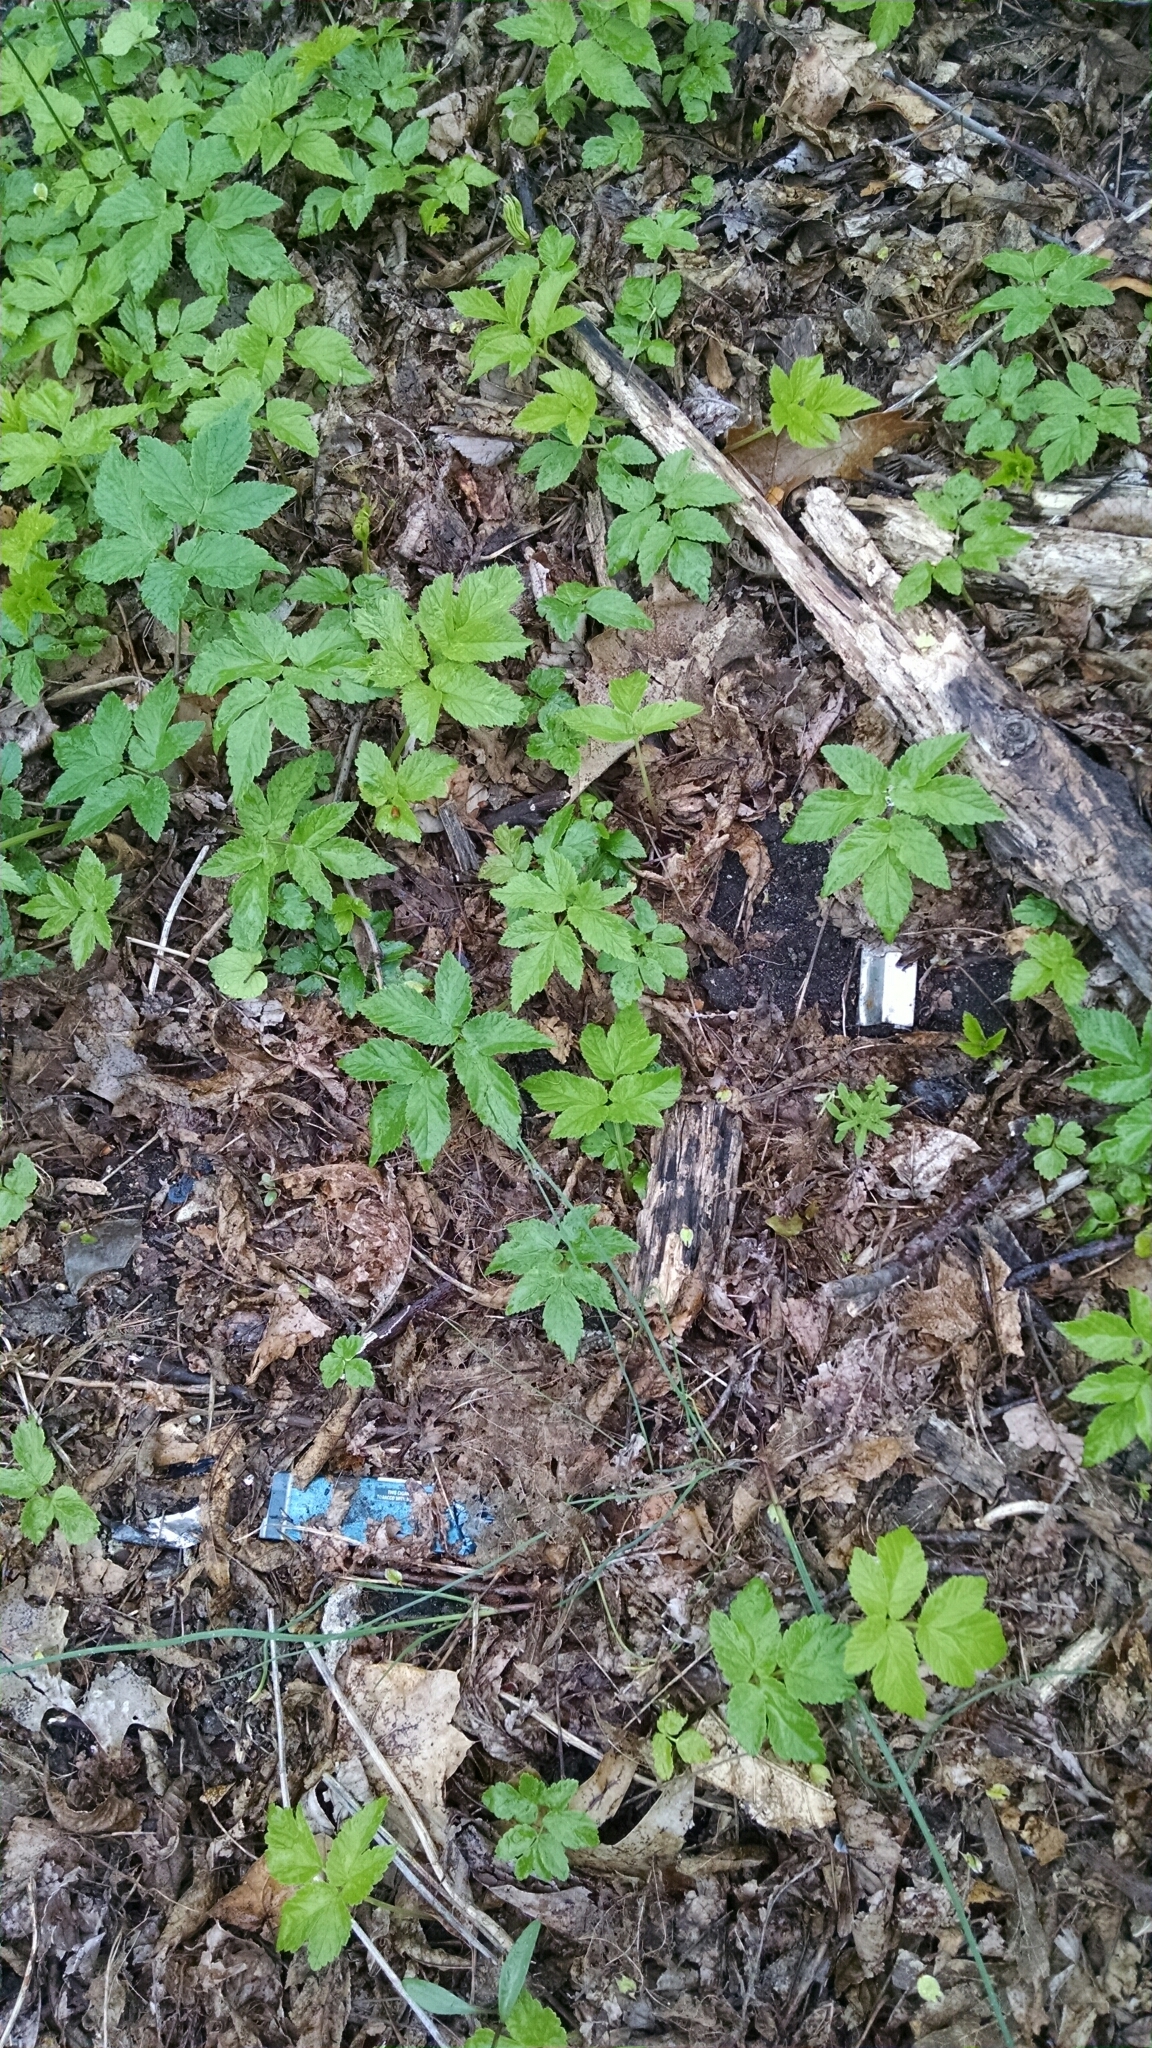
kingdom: Plantae
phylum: Tracheophyta
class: Magnoliopsida
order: Apiales
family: Apiaceae
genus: Aegopodium
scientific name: Aegopodium podagraria
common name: Ground-elder
